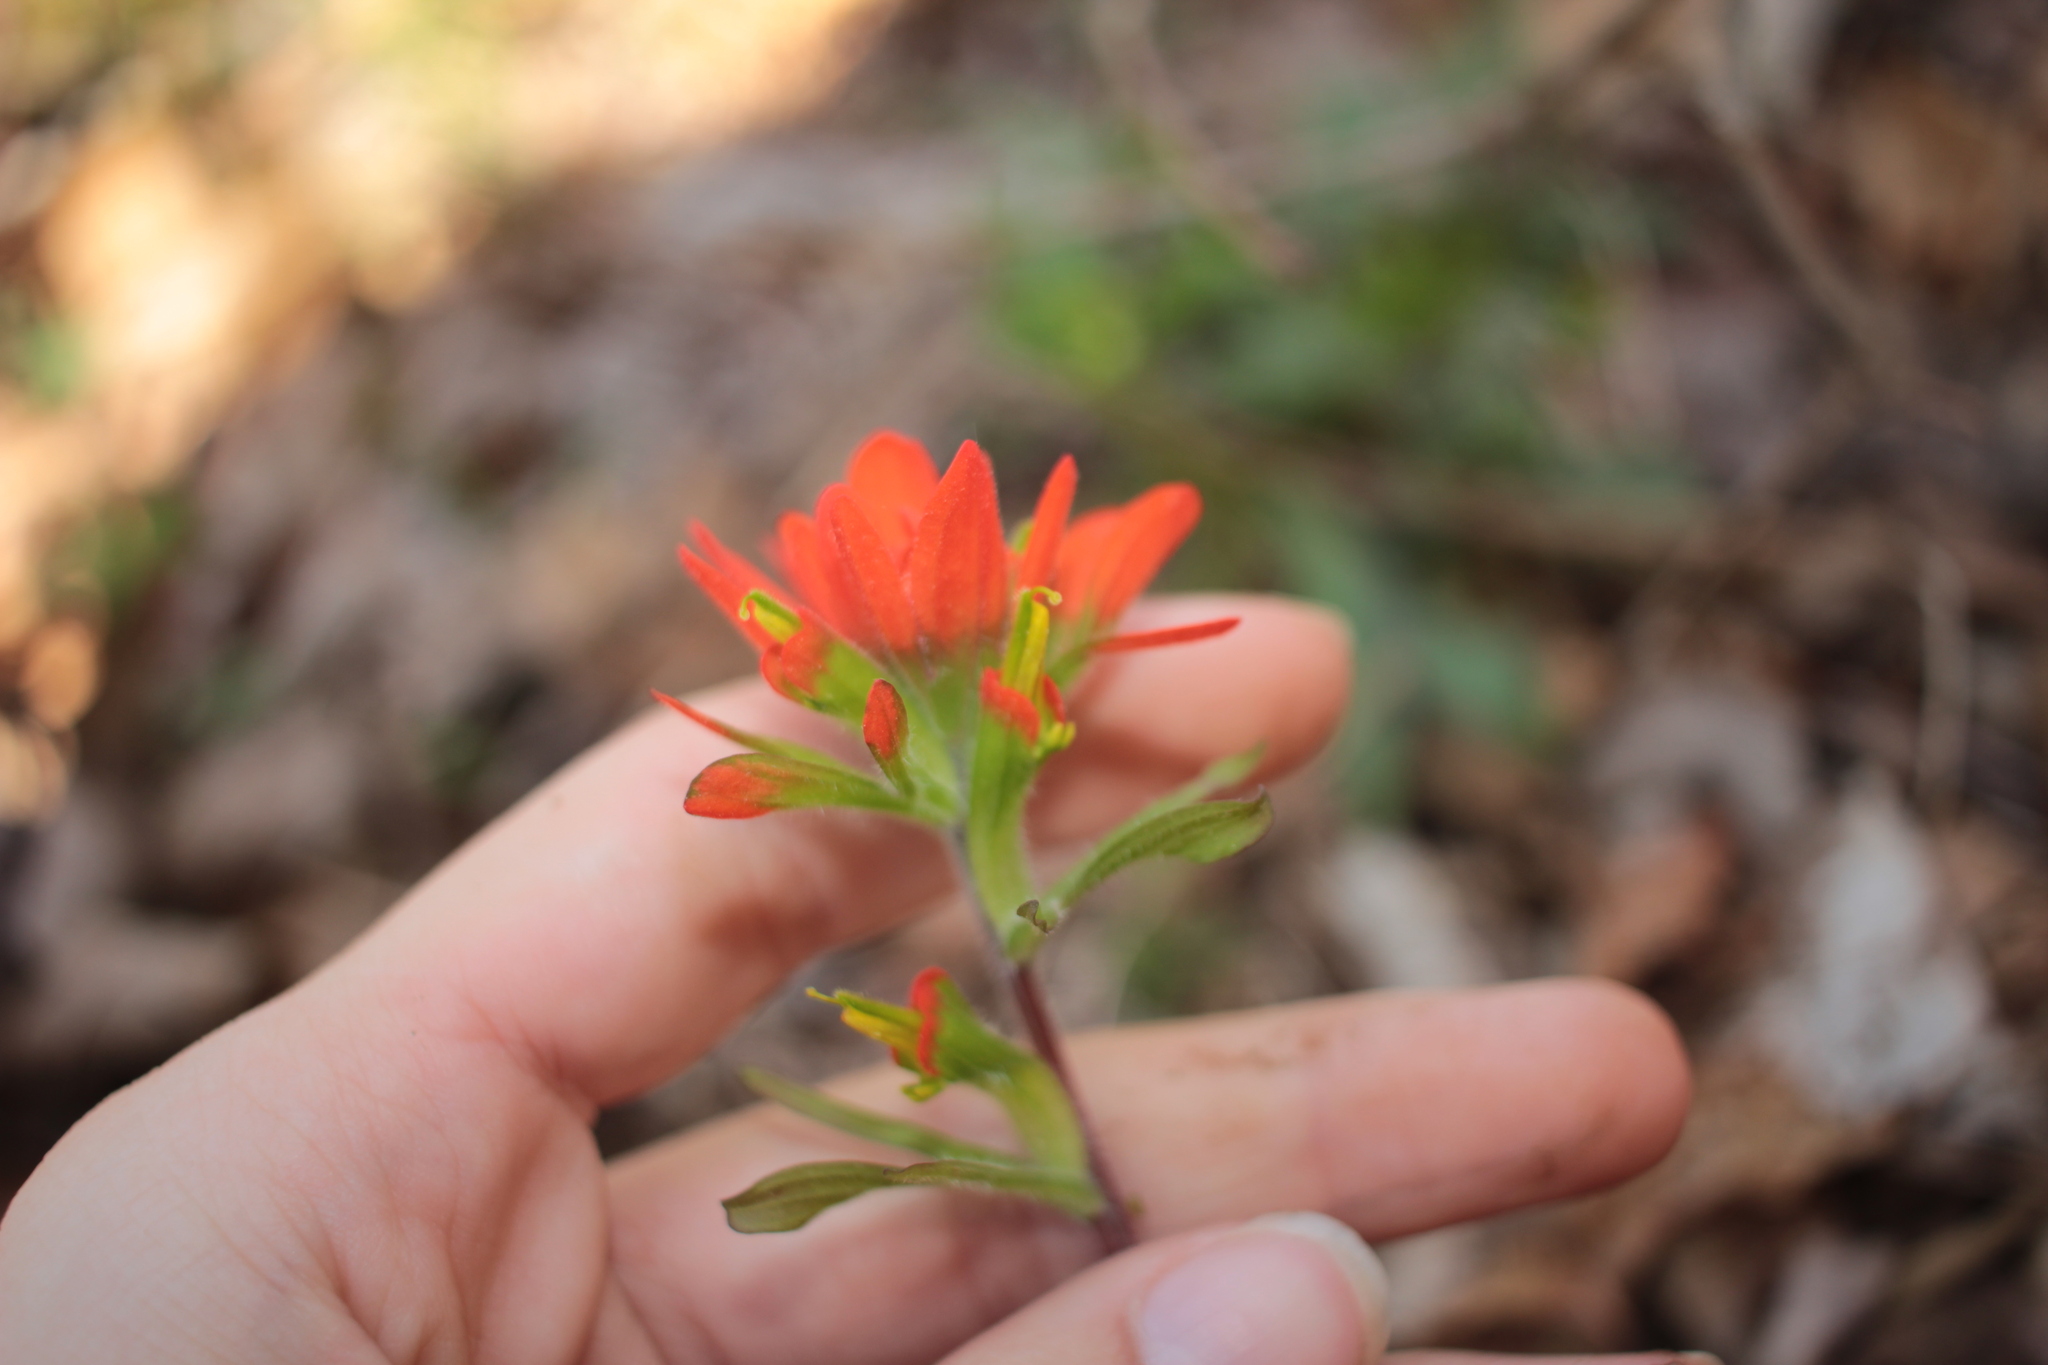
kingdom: Plantae
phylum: Tracheophyta
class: Magnoliopsida
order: Lamiales
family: Orobanchaceae
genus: Castilleja
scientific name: Castilleja coccinea
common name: Scarlet paintbrush
